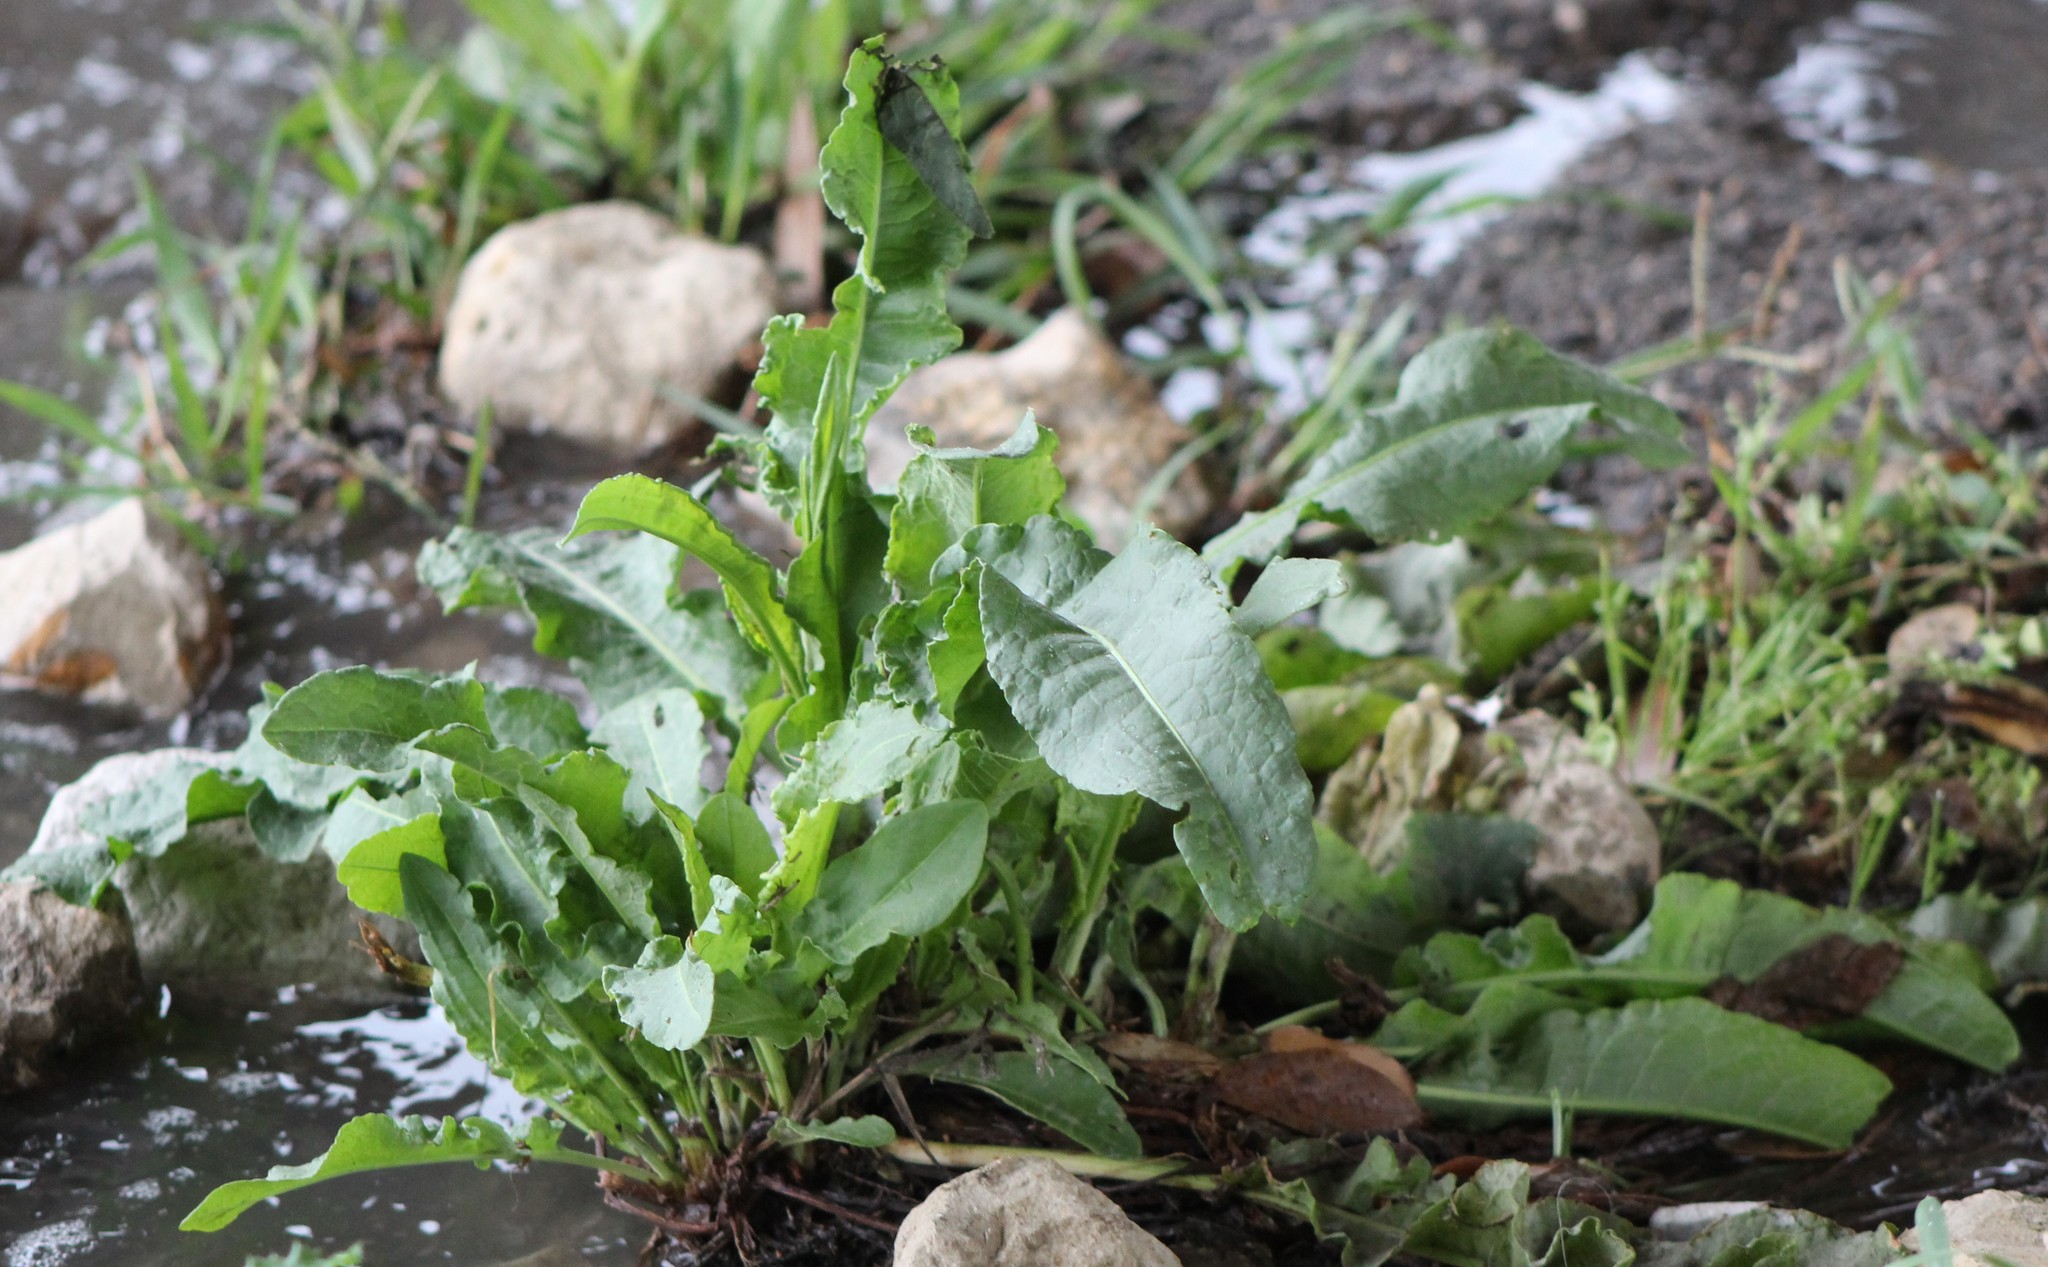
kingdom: Plantae
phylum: Tracheophyta
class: Magnoliopsida
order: Caryophyllales
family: Polygonaceae
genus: Rumex
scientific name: Rumex crispus
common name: Curled dock
